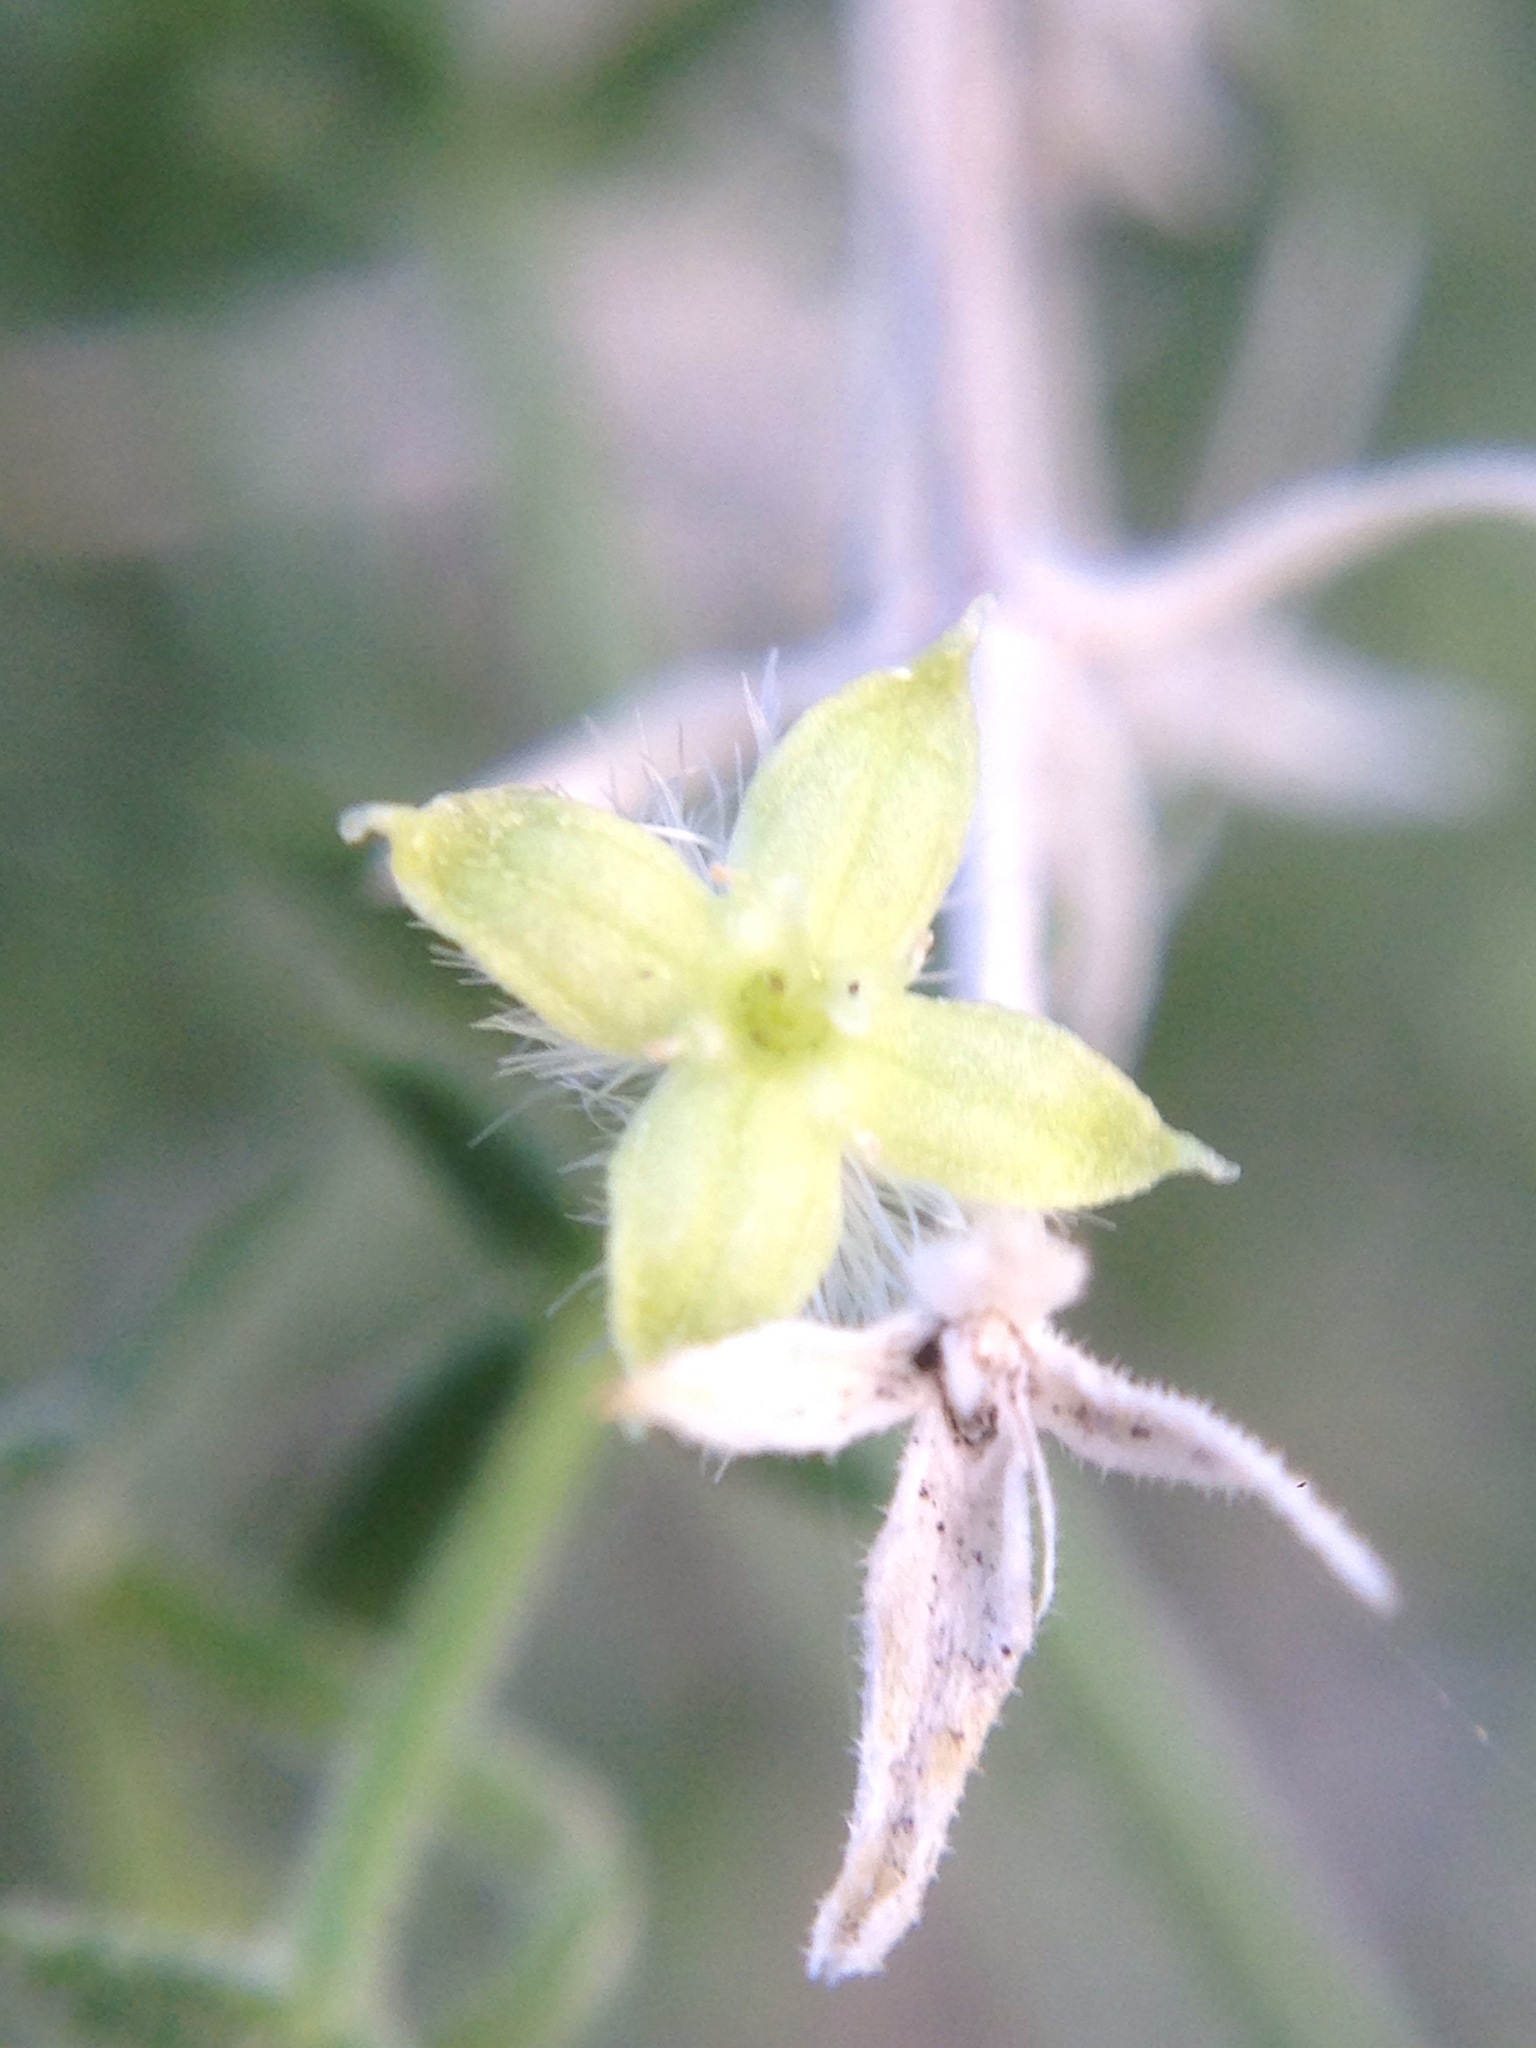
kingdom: Plantae
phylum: Tracheophyta
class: Magnoliopsida
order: Gentianales
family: Rubiaceae
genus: Galium
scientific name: Galium stellatum
